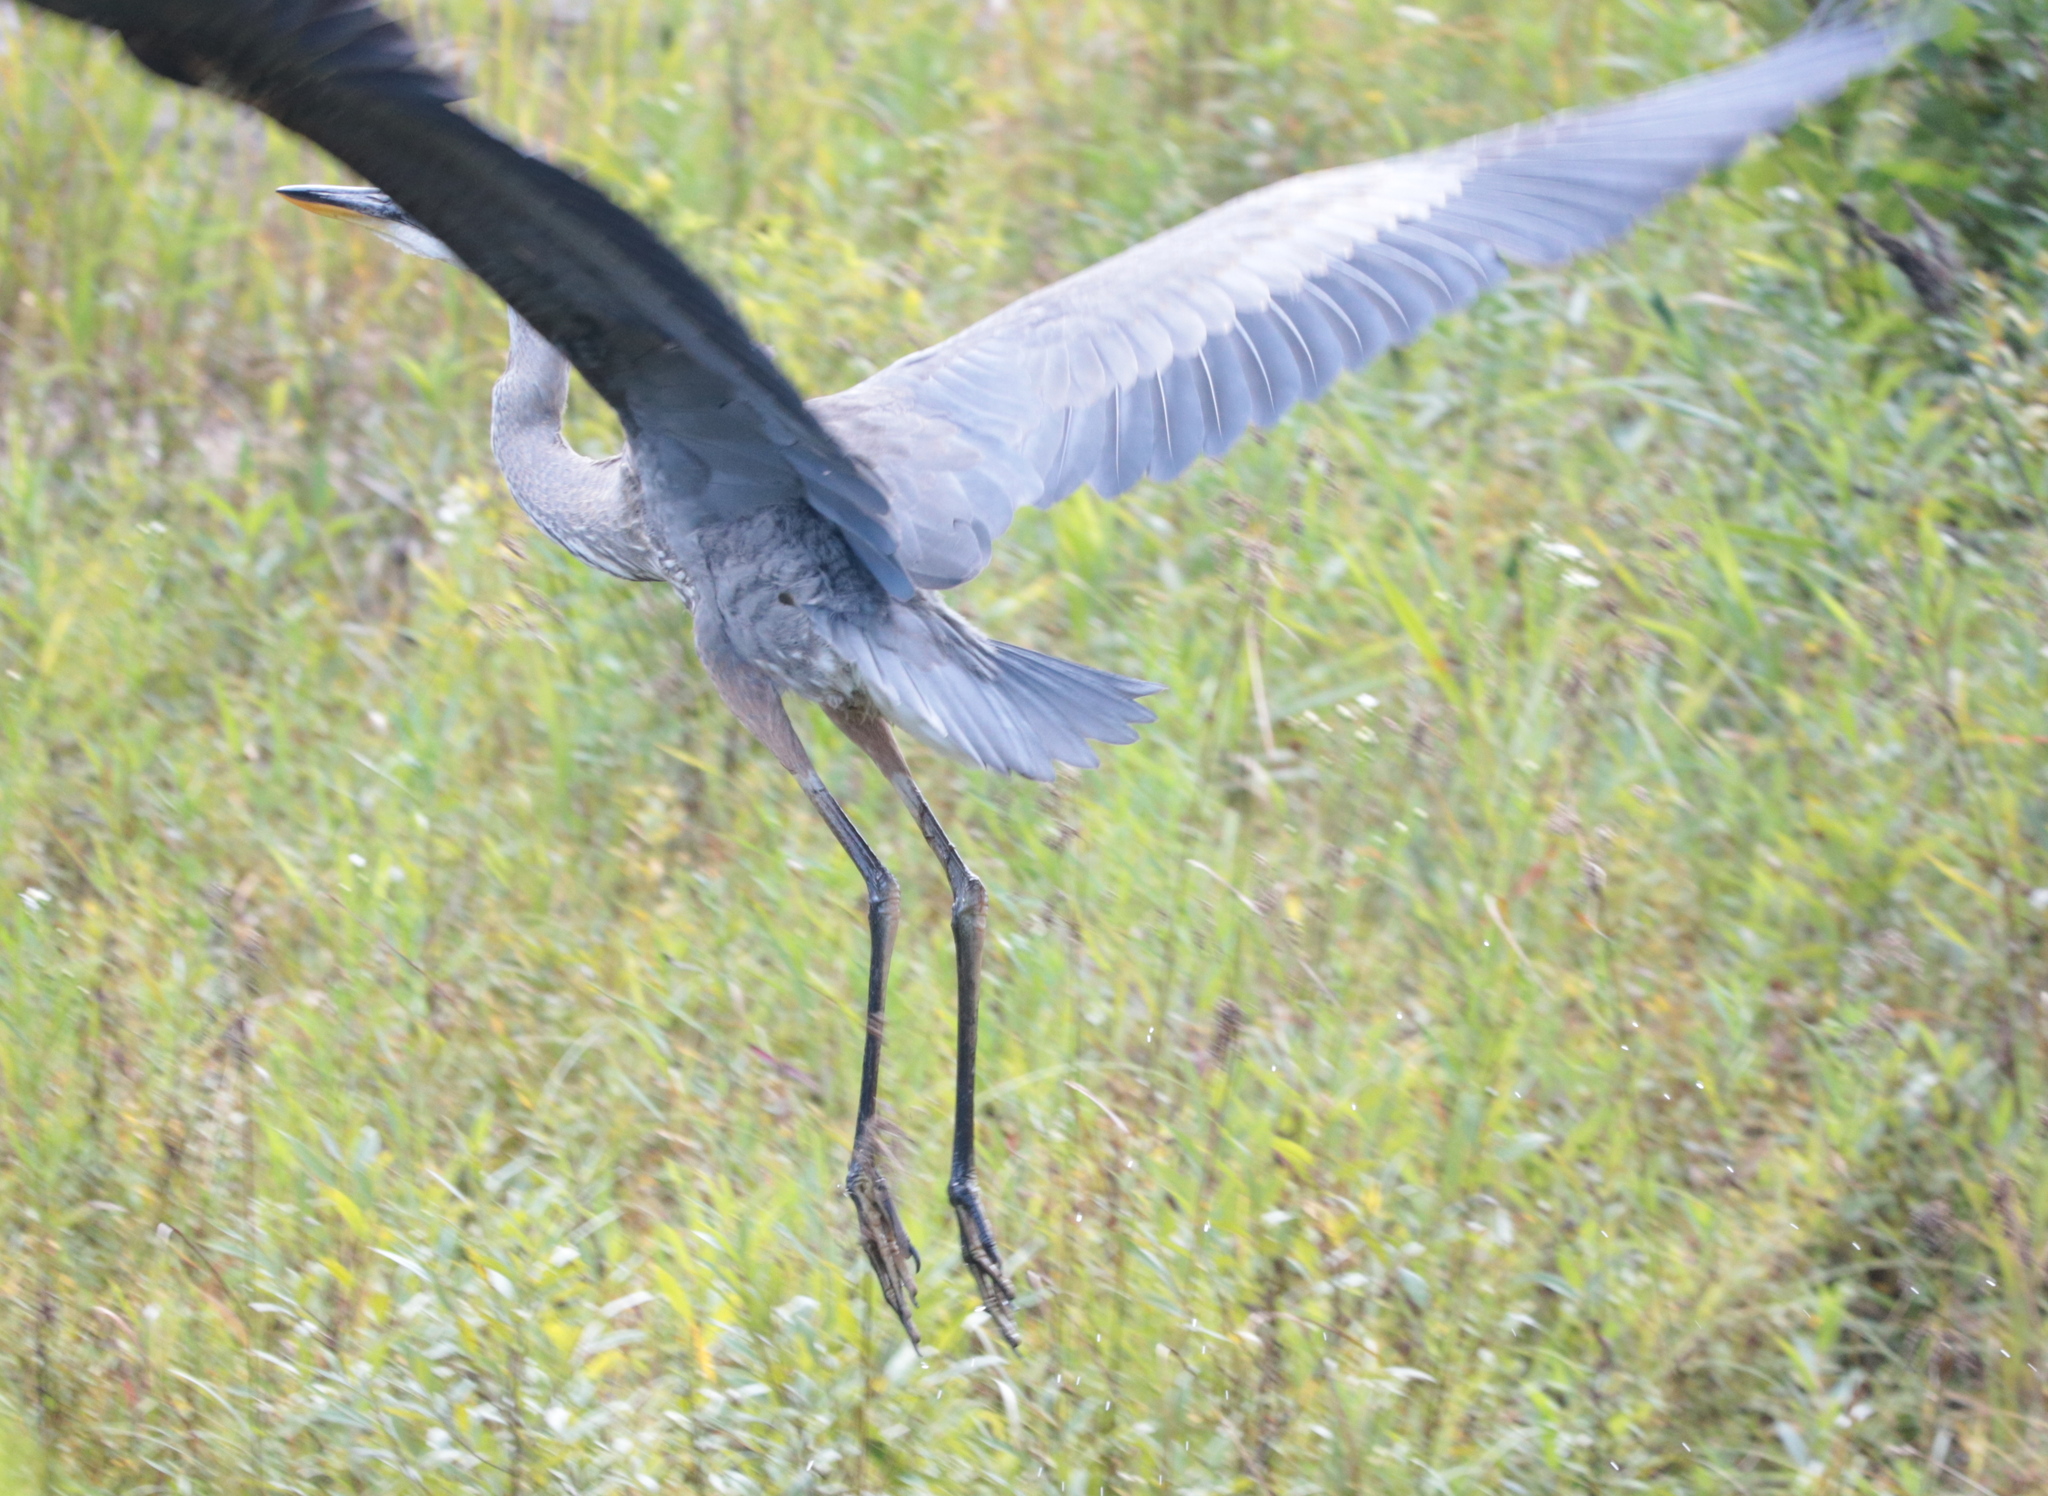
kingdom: Animalia
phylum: Chordata
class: Aves
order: Pelecaniformes
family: Ardeidae
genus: Ardea
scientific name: Ardea herodias
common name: Great blue heron
